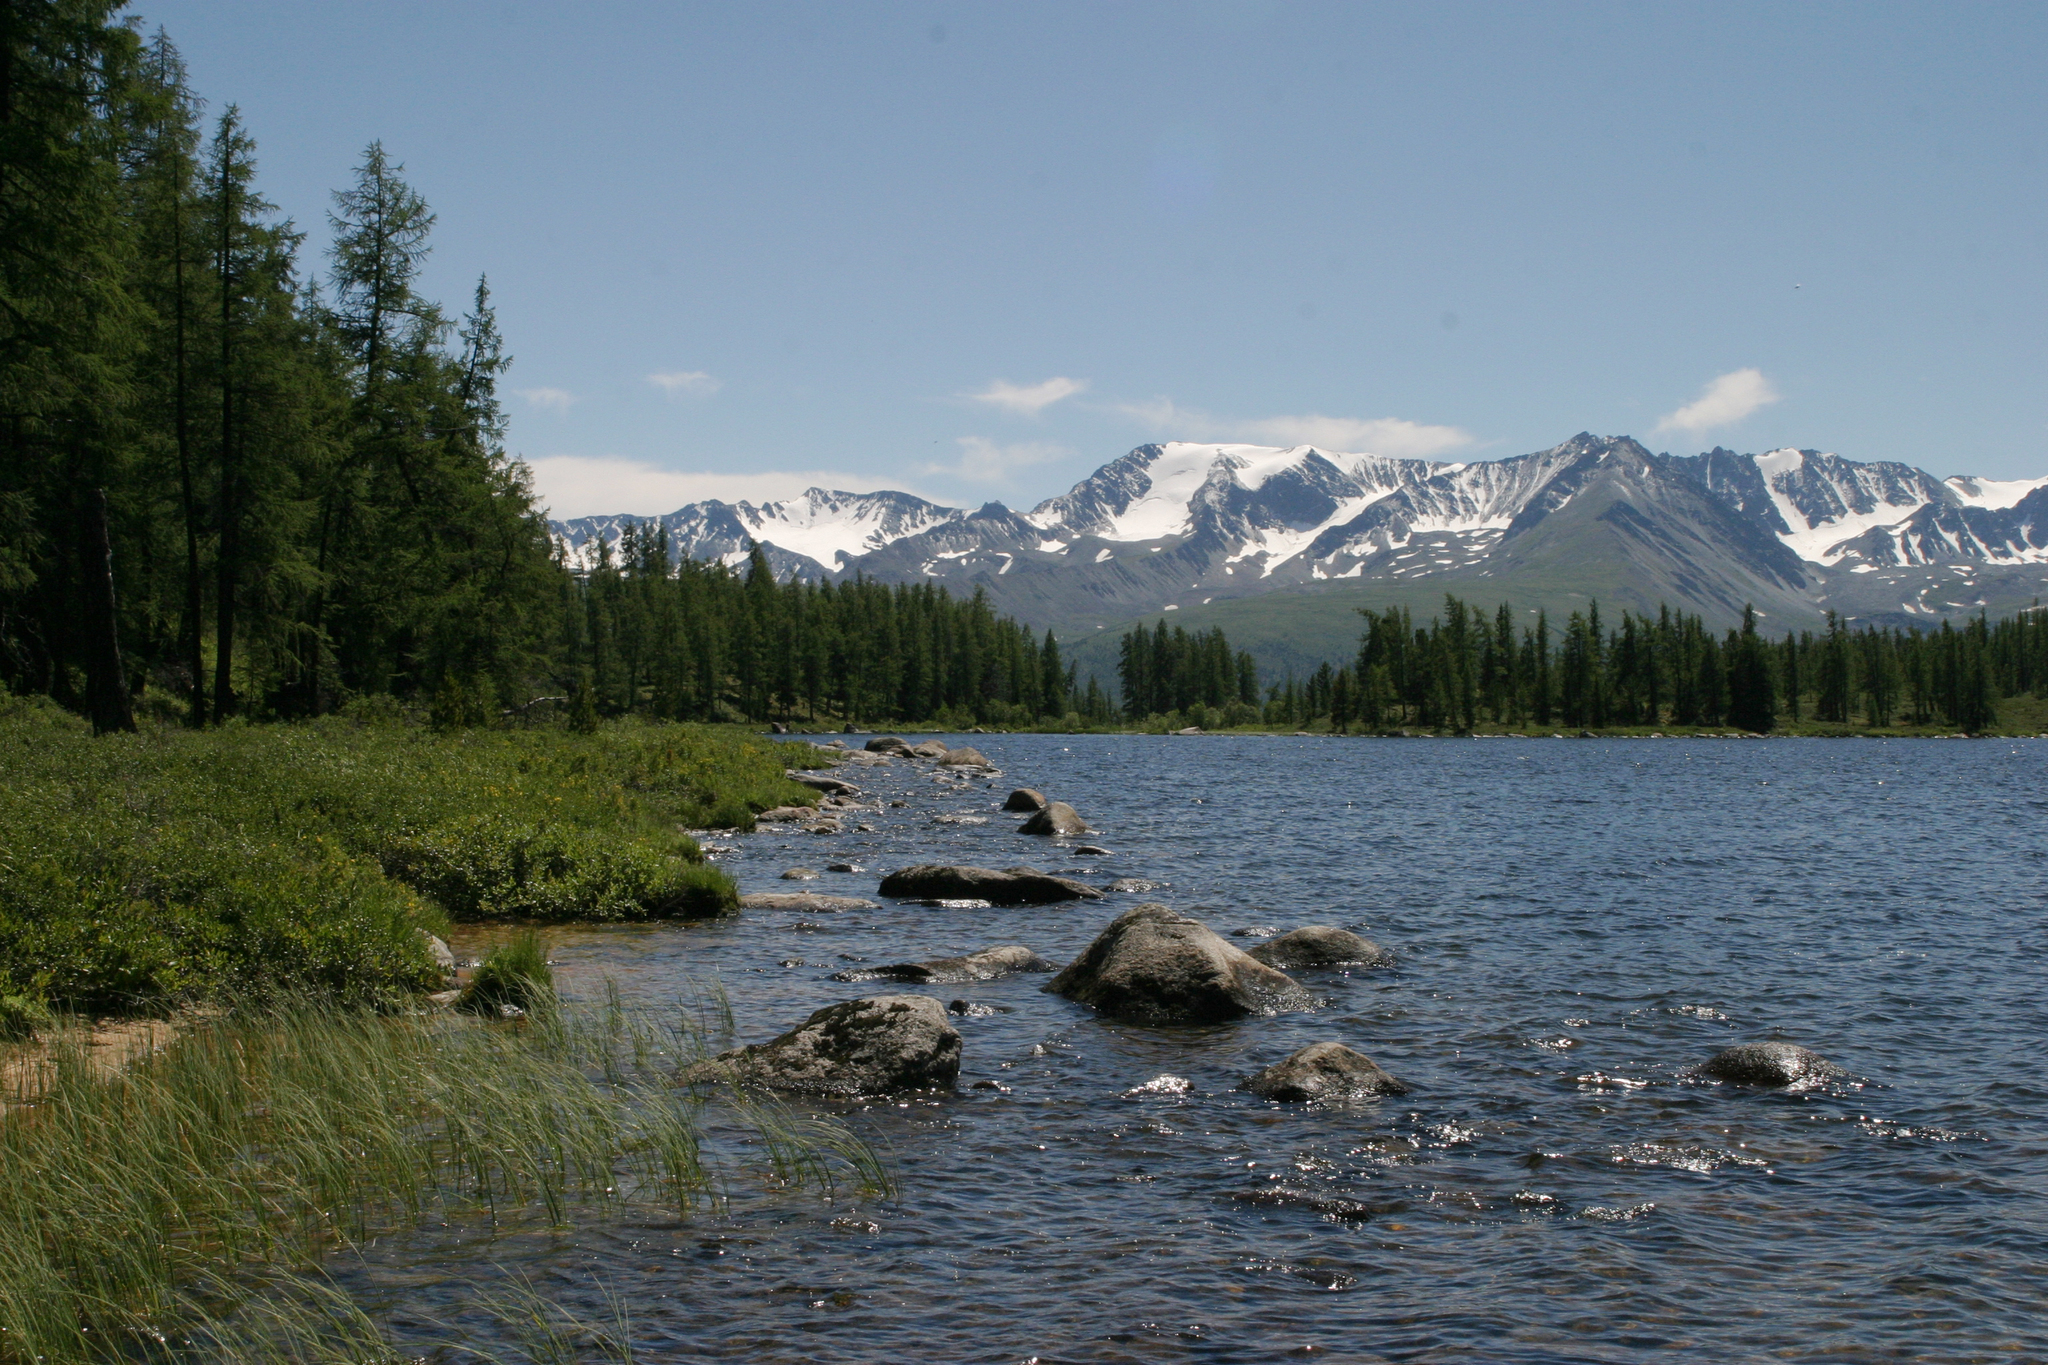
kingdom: Plantae
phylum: Tracheophyta
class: Pinopsida
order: Pinales
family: Pinaceae
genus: Larix
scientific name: Larix sibirica
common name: Siberian larch
